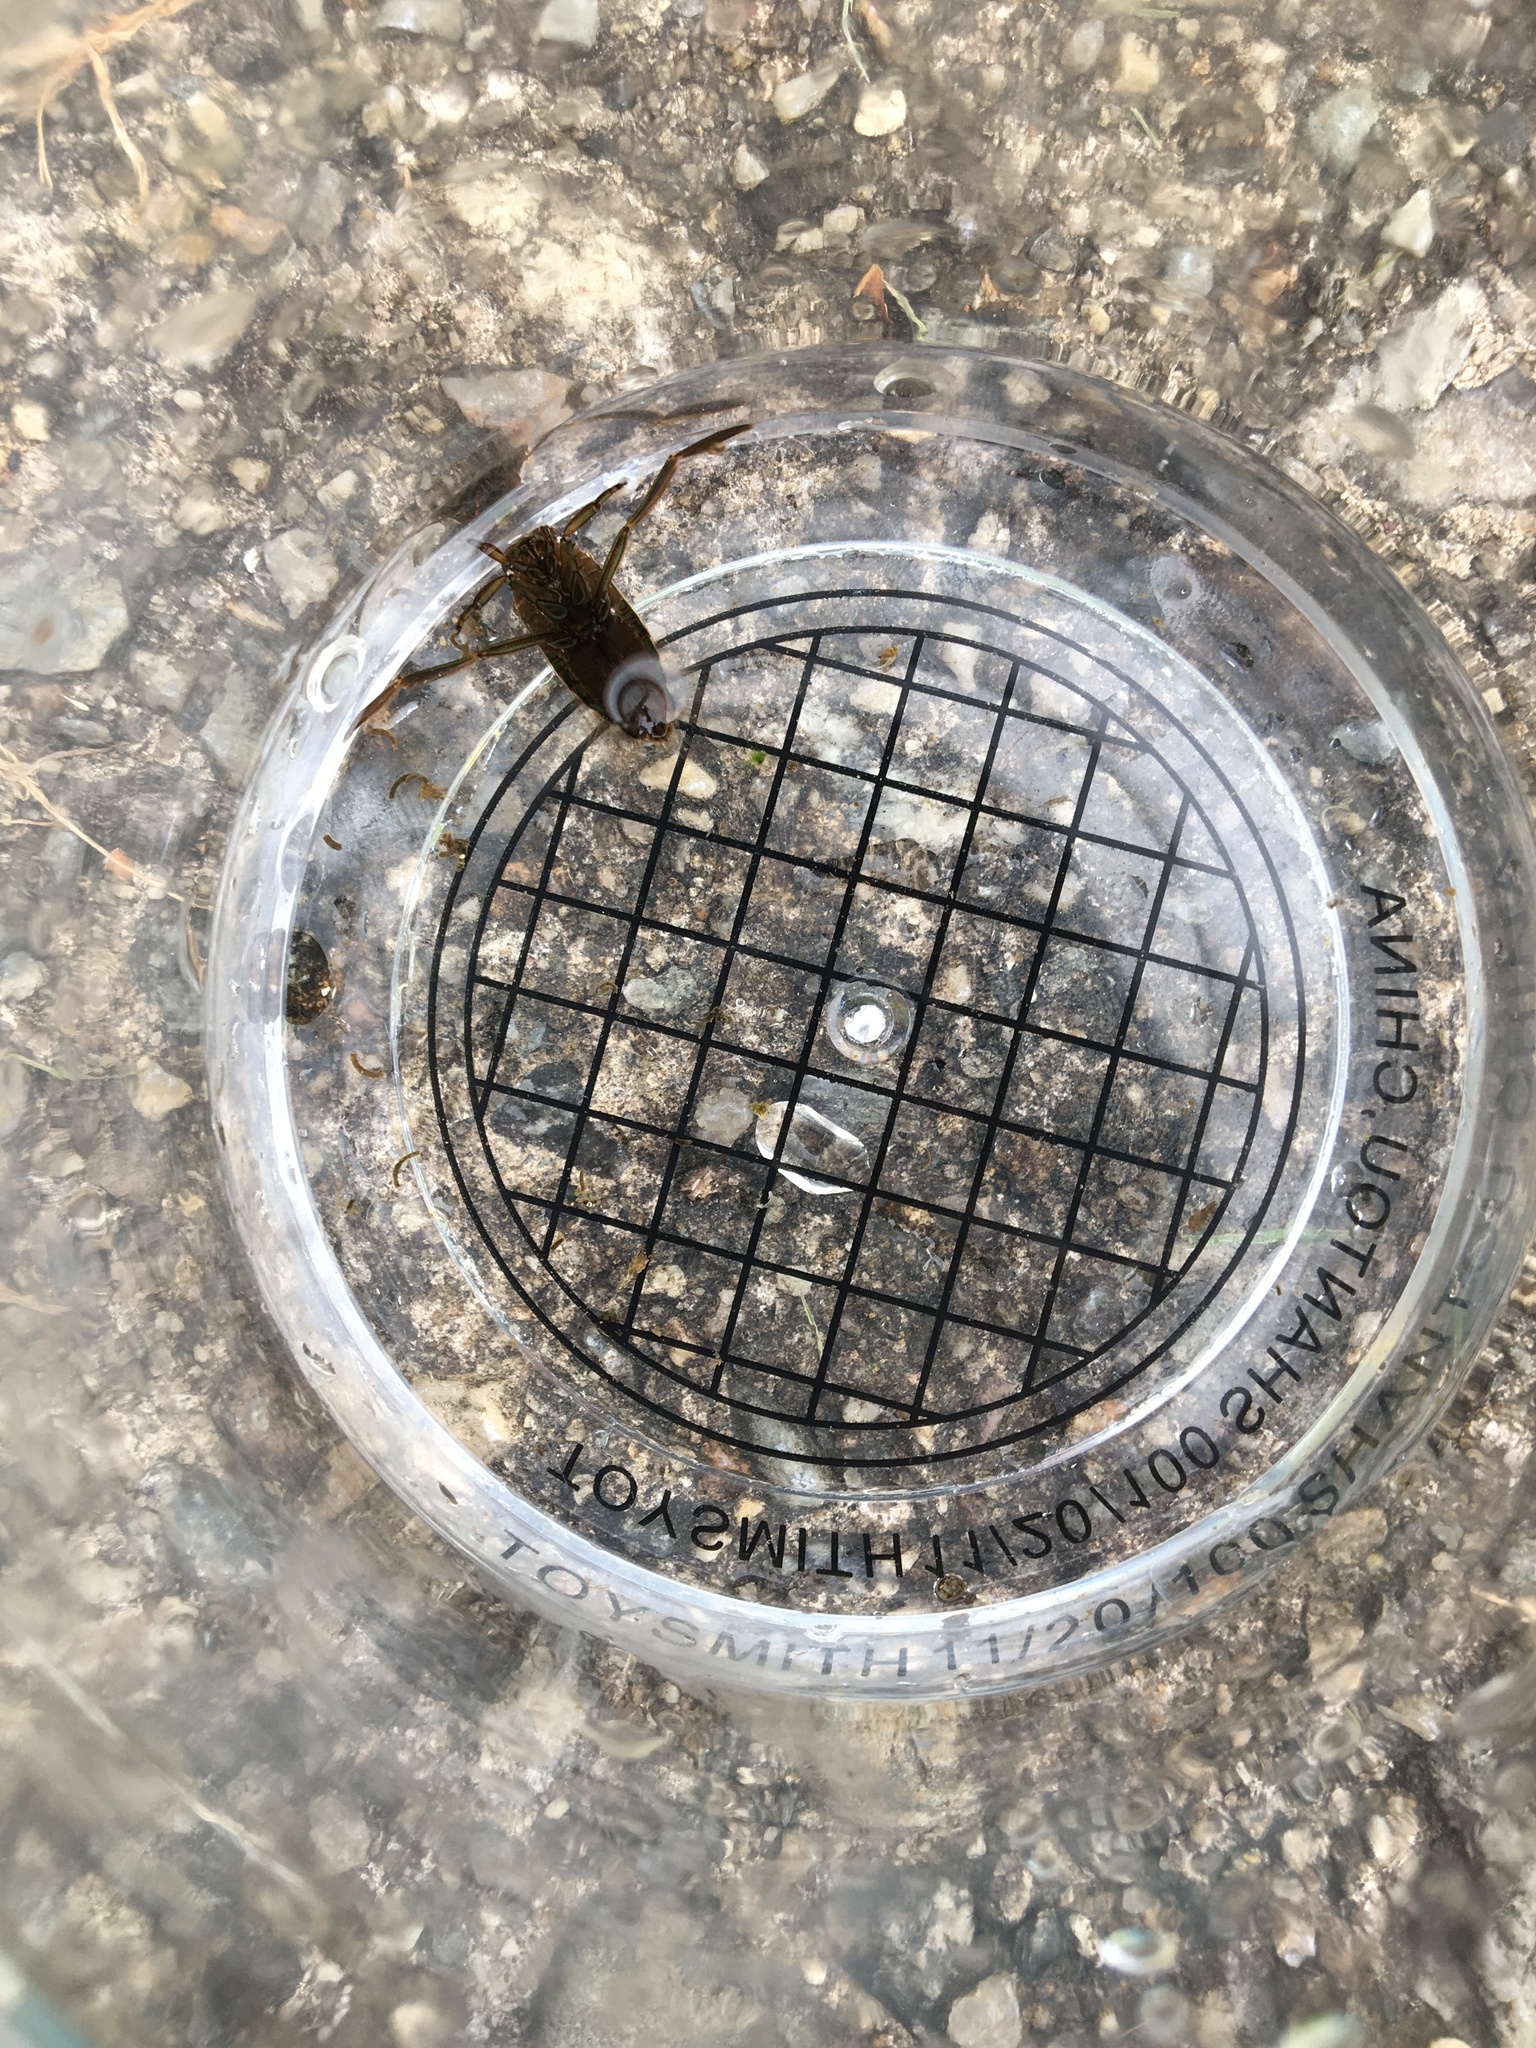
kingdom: Animalia
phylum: Arthropoda
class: Insecta
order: Hemiptera
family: Notonectidae
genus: Notonecta
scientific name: Notonecta irrorata
